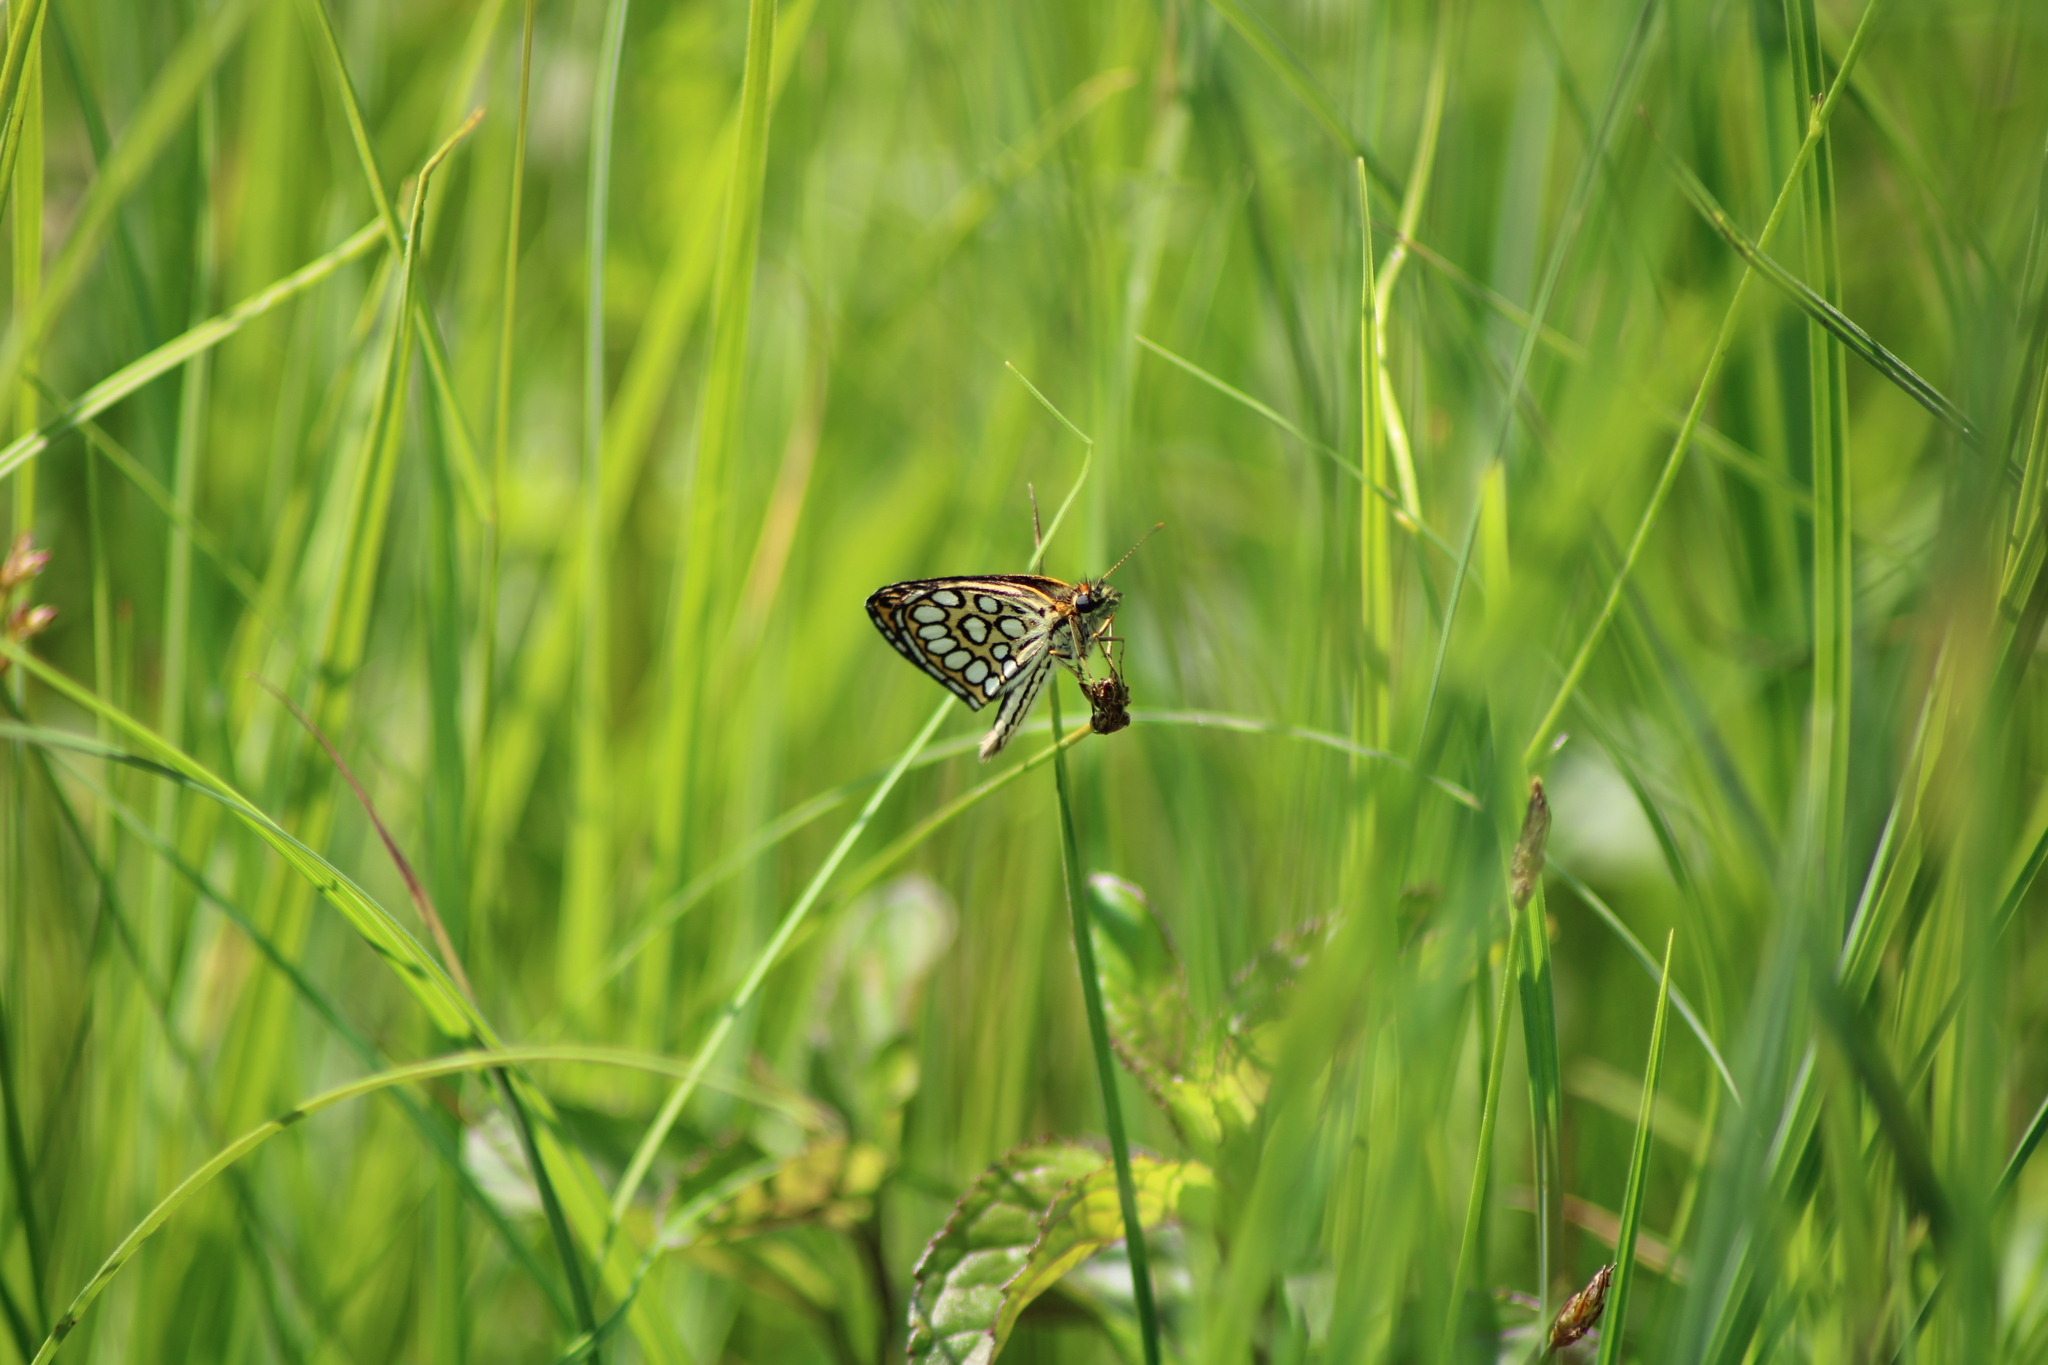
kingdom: Animalia
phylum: Arthropoda
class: Insecta
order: Lepidoptera
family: Hesperiidae
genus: Heteropterus
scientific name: Heteropterus morpheus
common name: Large chequered skipper
